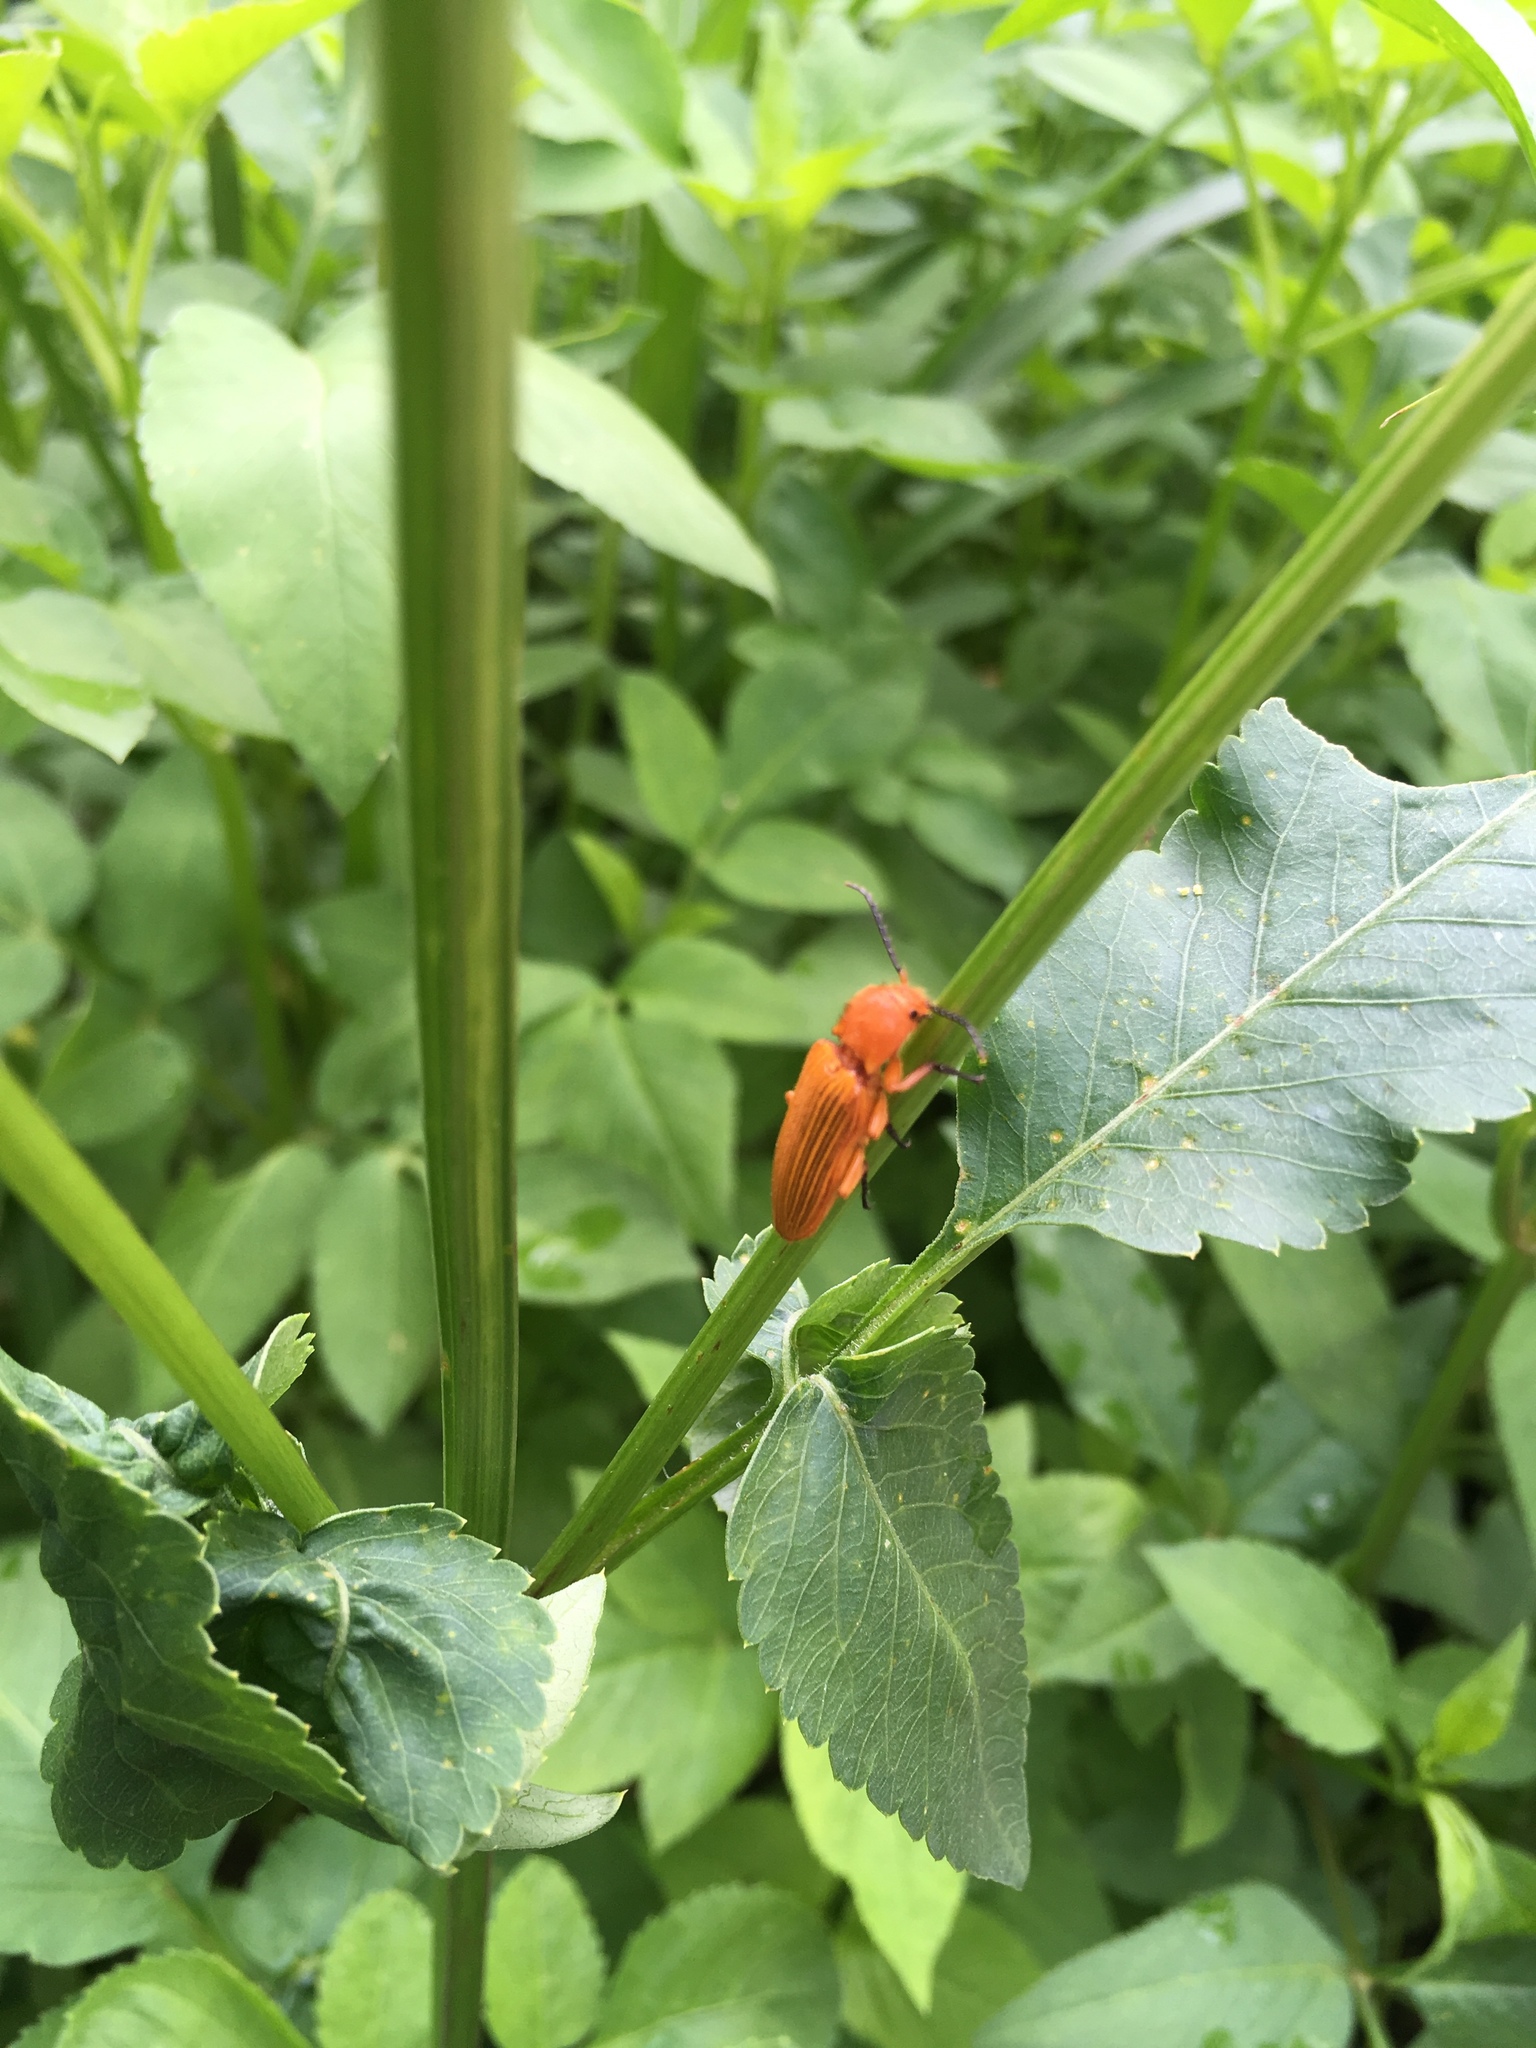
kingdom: Animalia
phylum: Arthropoda
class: Insecta
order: Coleoptera
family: Elateridae
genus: Hemiops
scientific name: Hemiops flava
